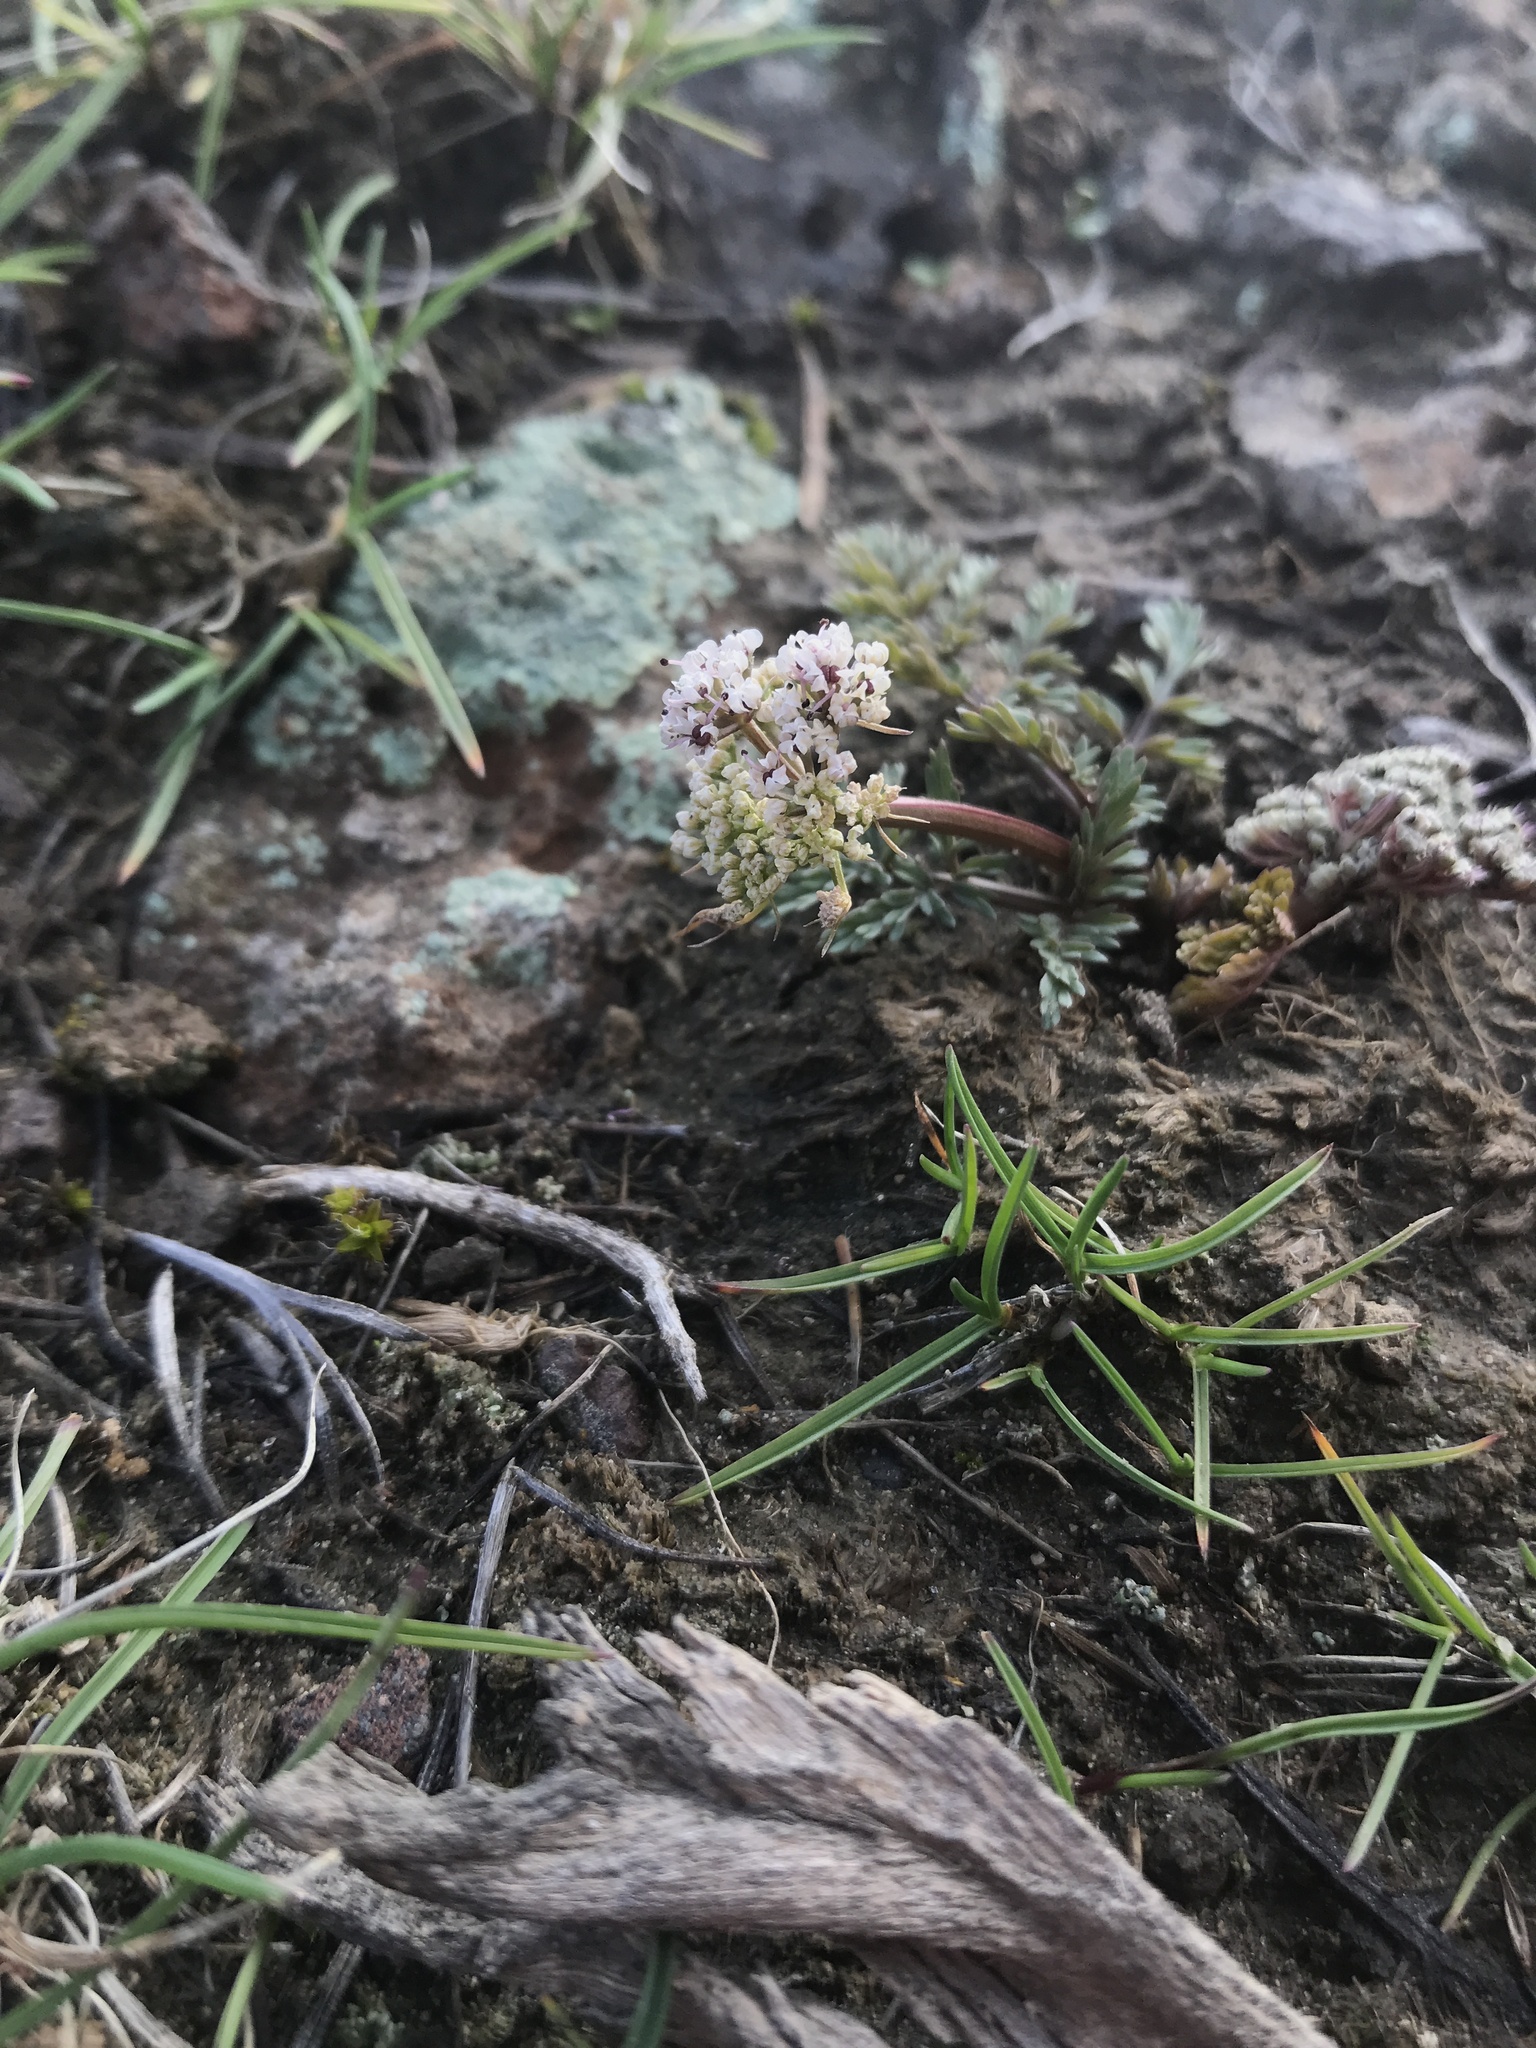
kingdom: Plantae
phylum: Tracheophyta
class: Magnoliopsida
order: Apiales
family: Apiaceae
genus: Lomatium
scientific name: Lomatium canbyi
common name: Chucklusa
